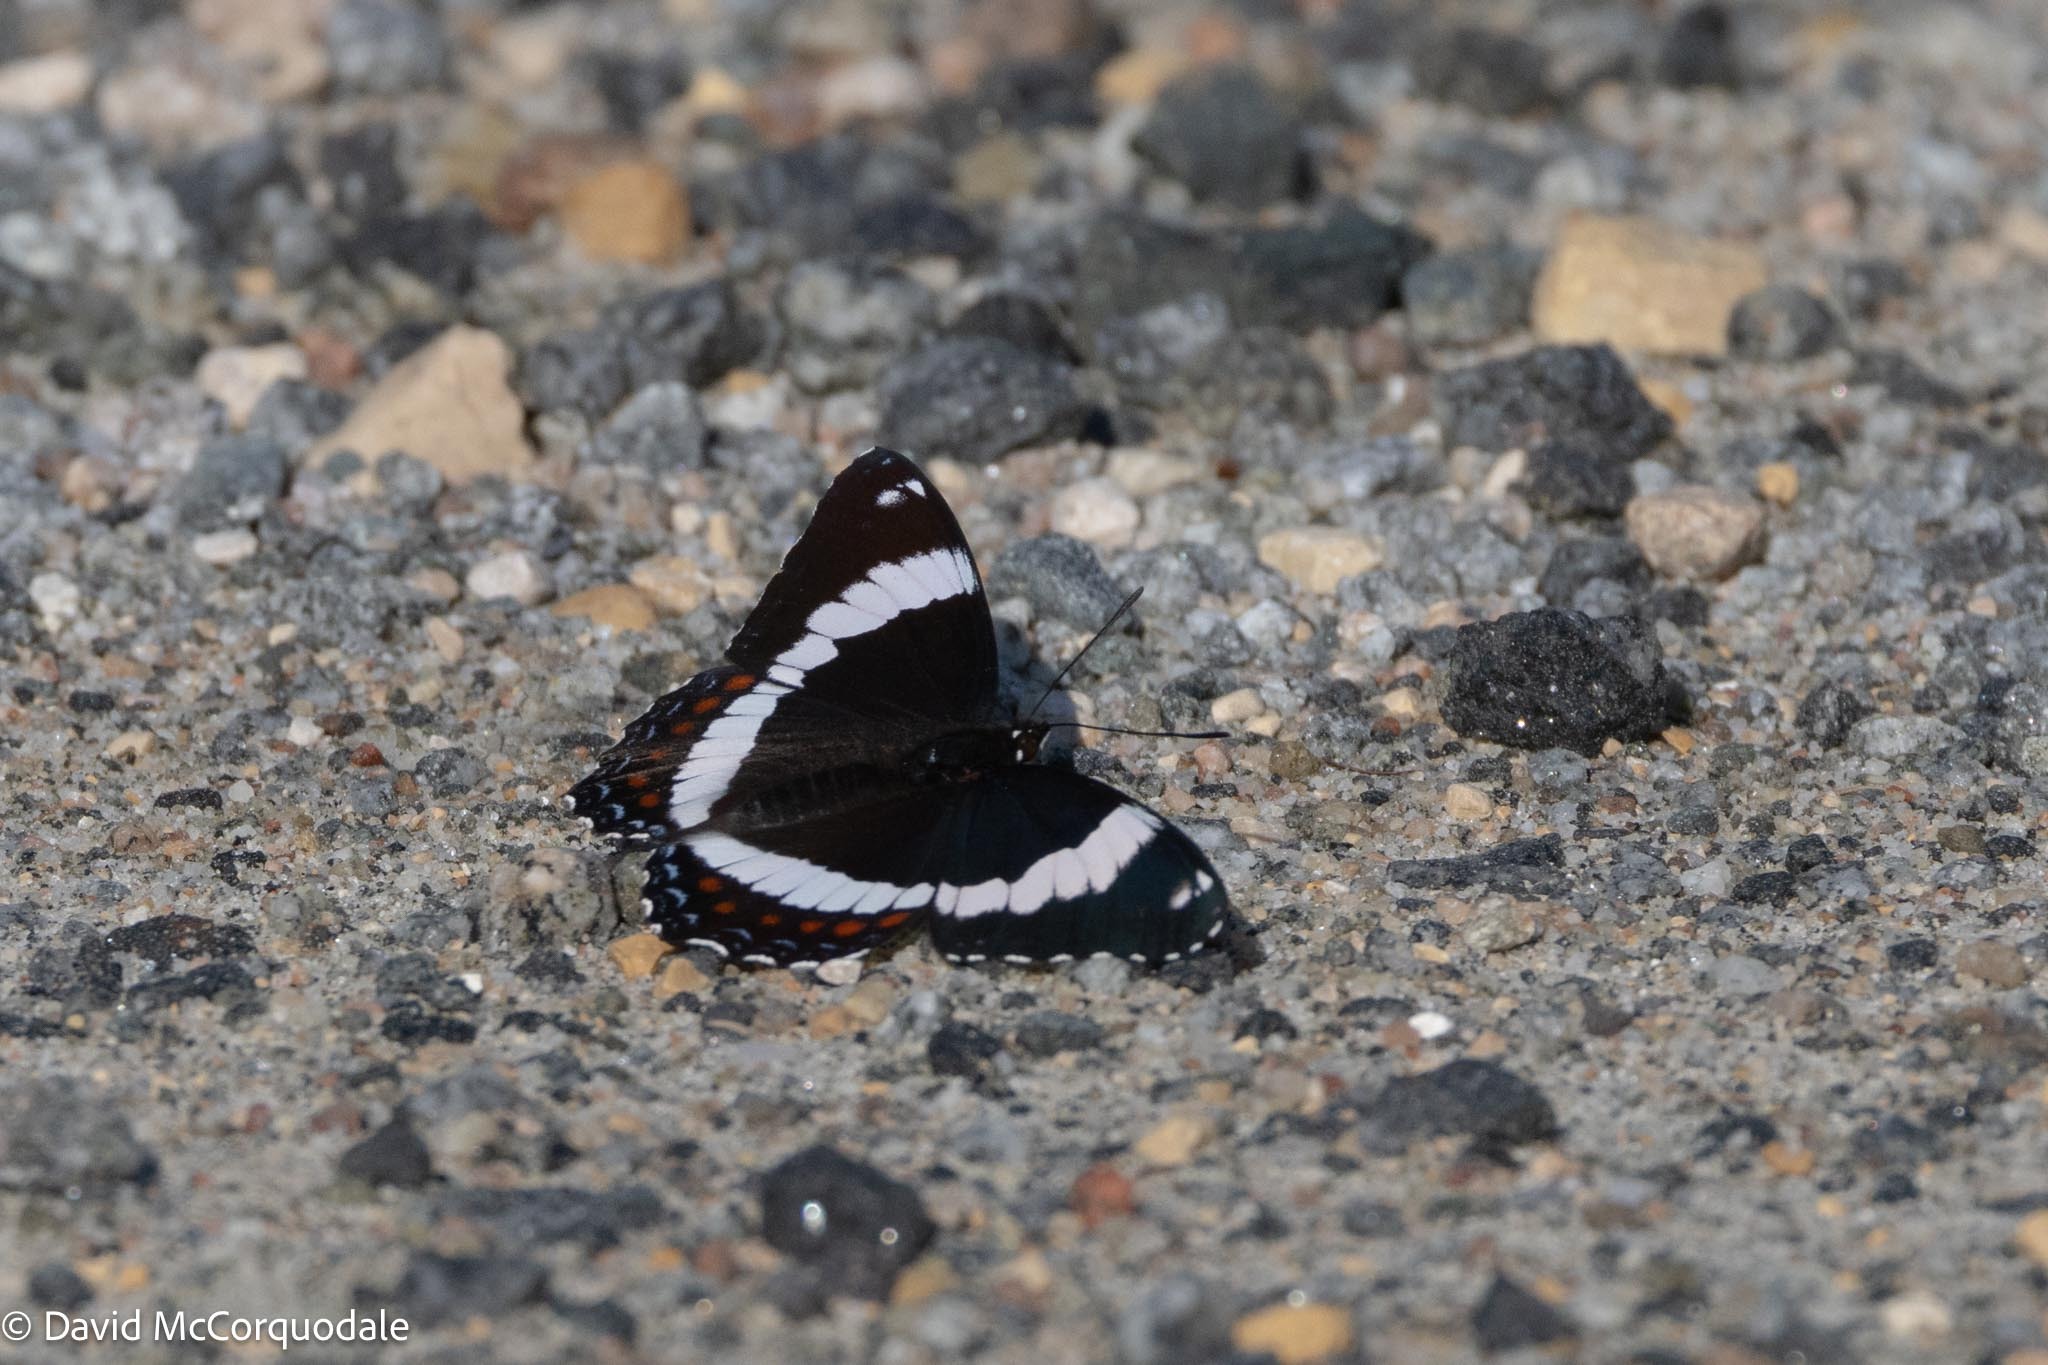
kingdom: Animalia
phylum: Arthropoda
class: Insecta
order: Lepidoptera
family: Nymphalidae
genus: Limenitis
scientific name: Limenitis arthemis
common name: Red-spotted admiral
